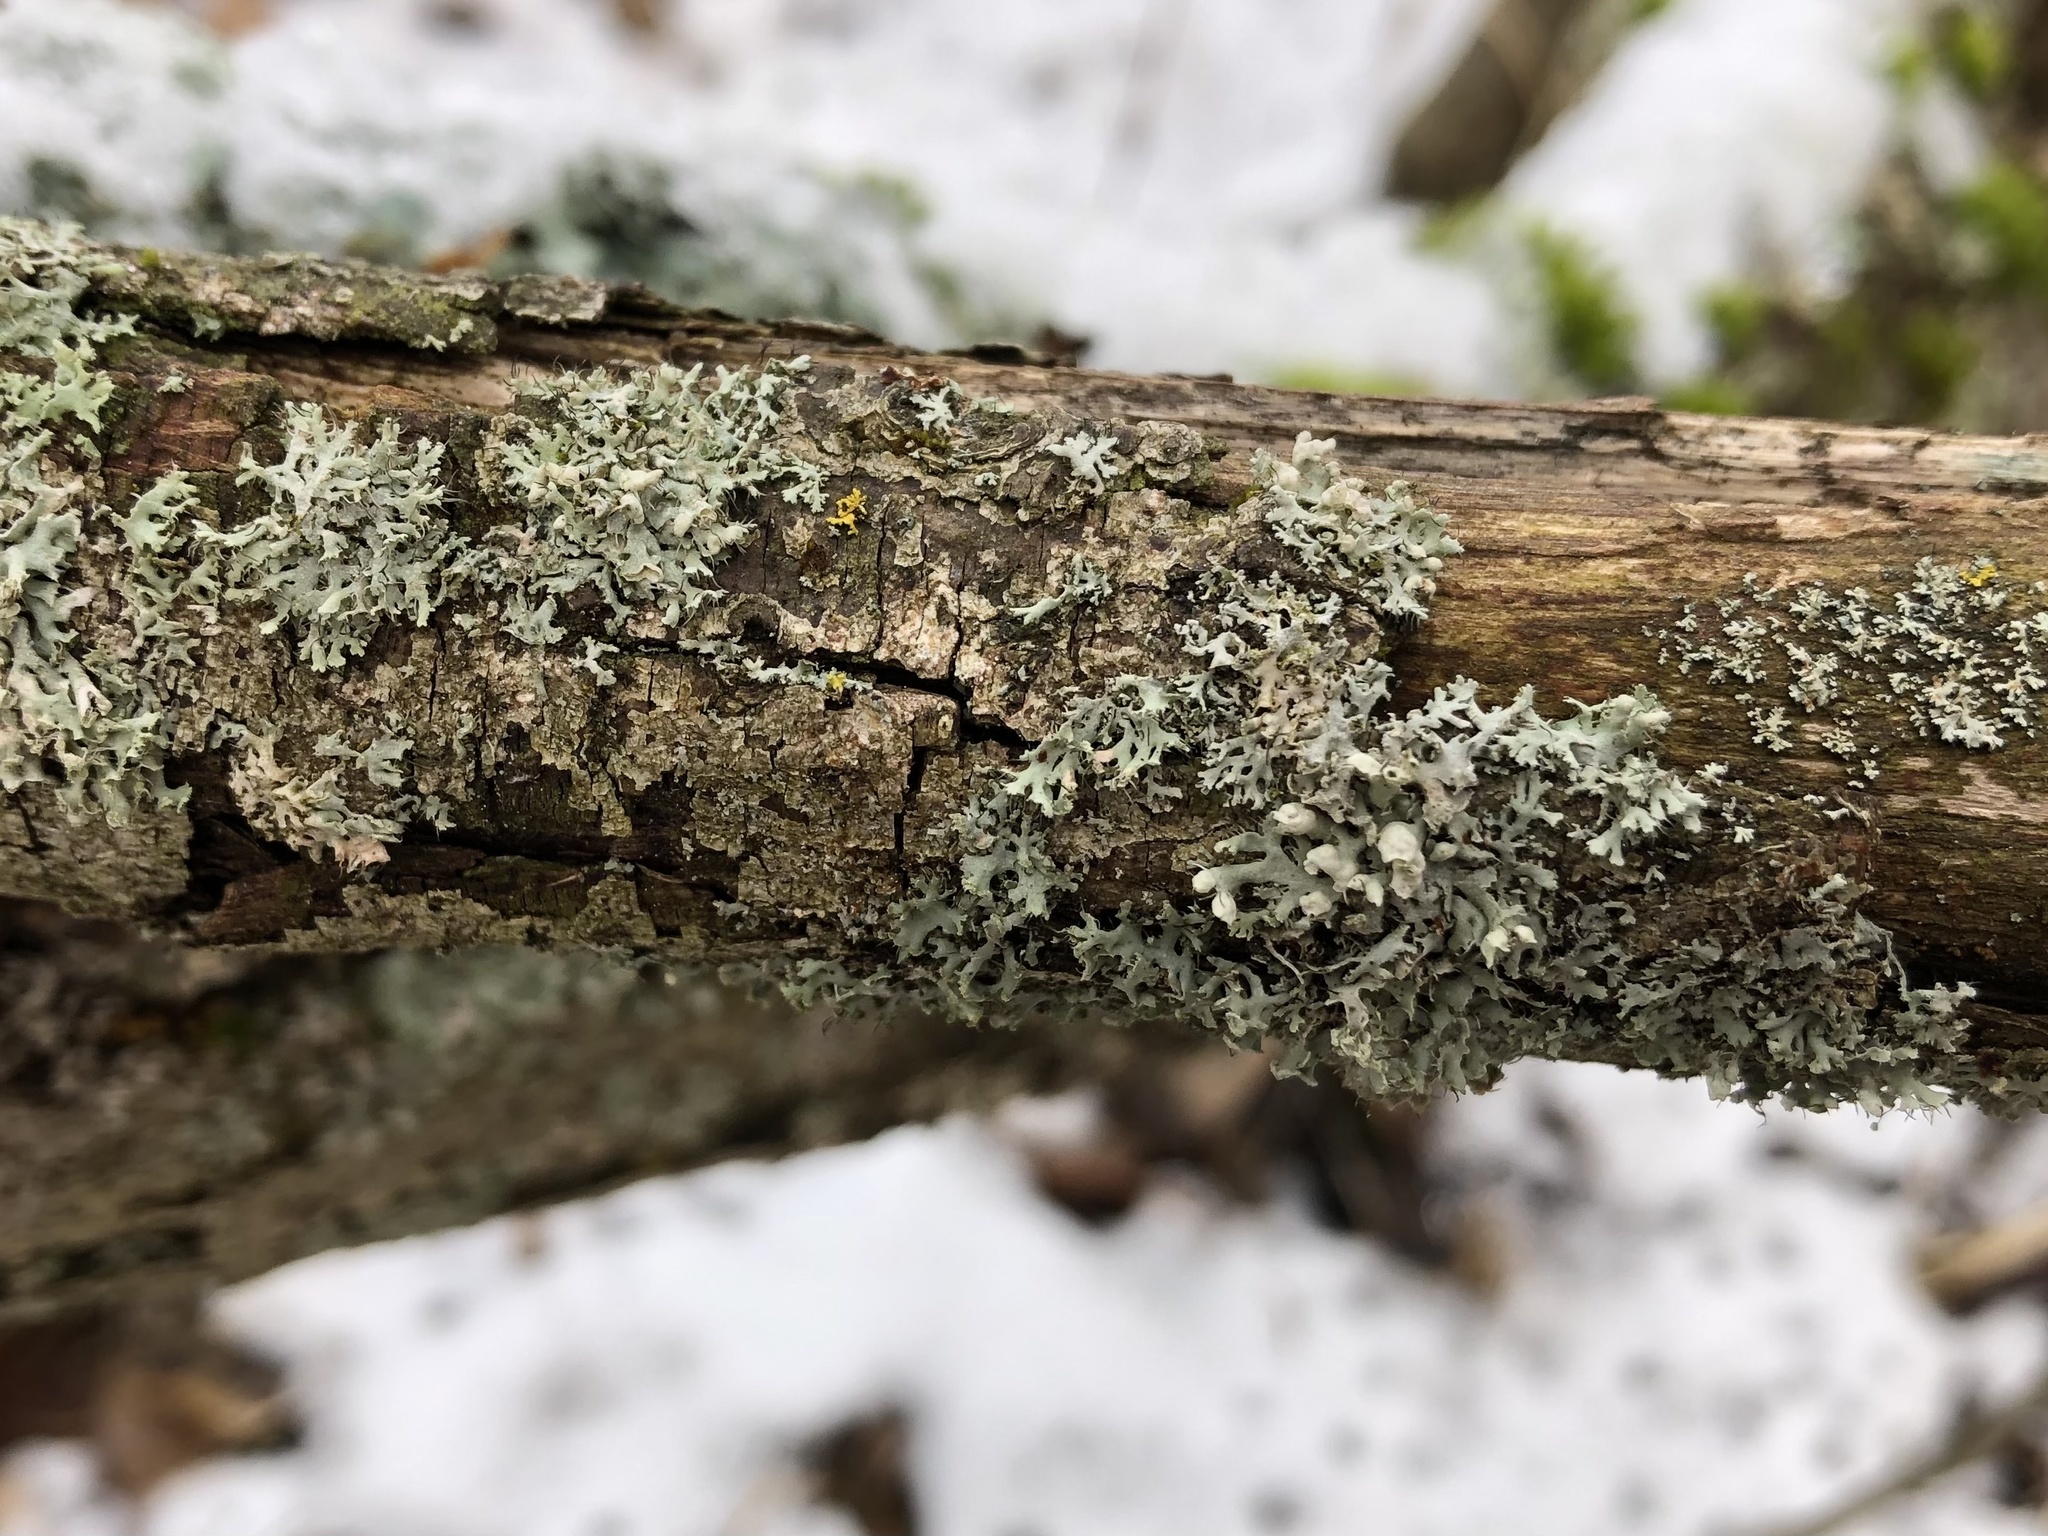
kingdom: Fungi
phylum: Ascomycota
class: Lecanoromycetes
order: Caliciales
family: Physciaceae
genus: Physcia
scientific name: Physcia adscendens
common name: Hooded rosette lichen
